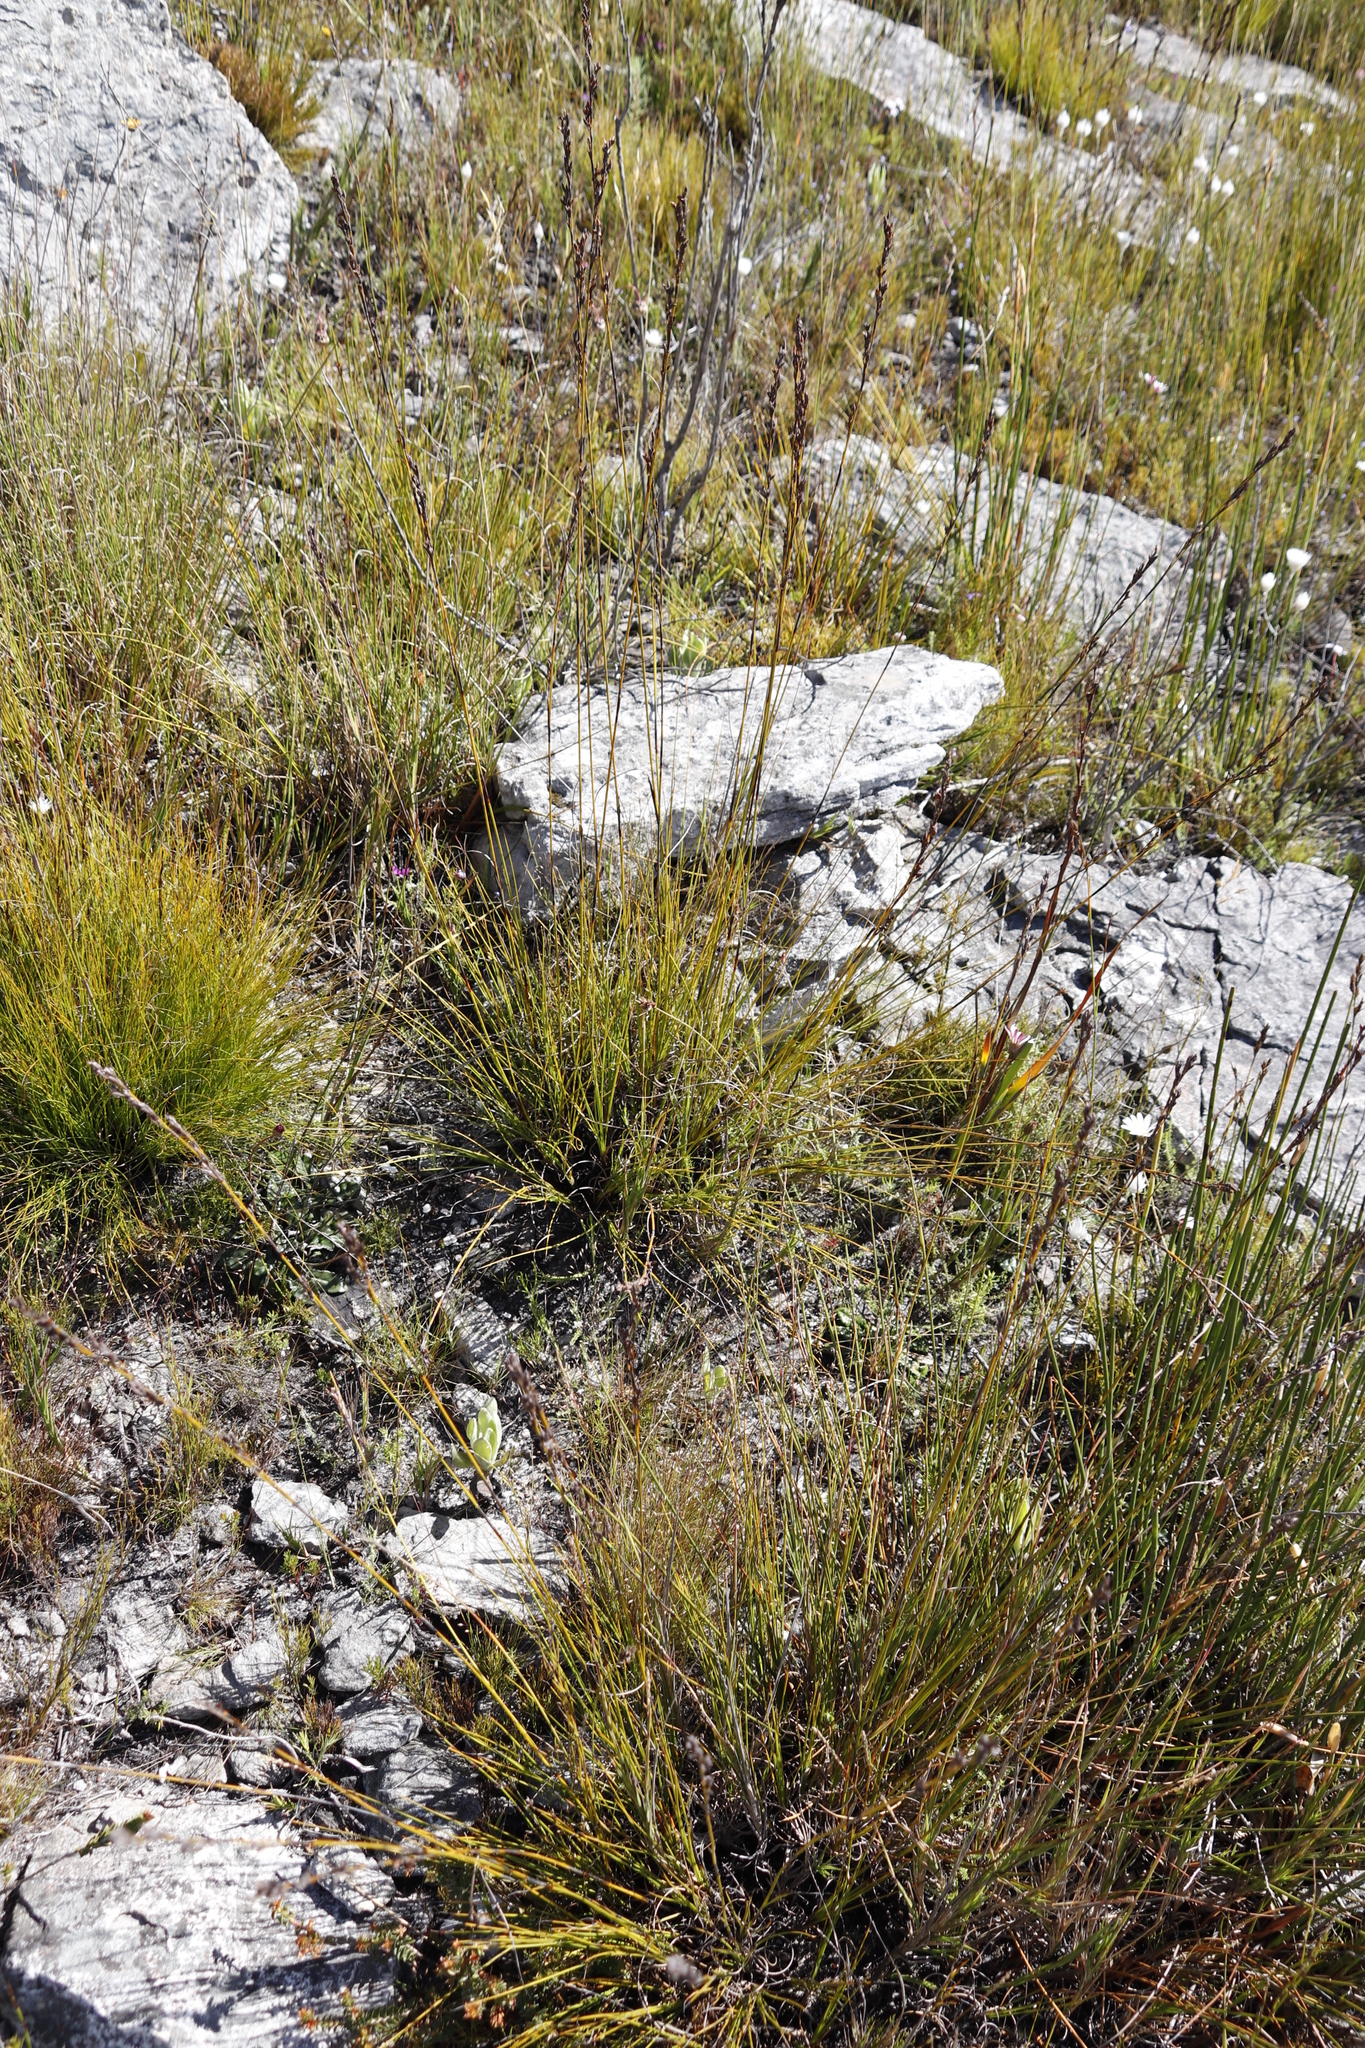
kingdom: Plantae
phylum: Tracheophyta
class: Liliopsida
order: Poales
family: Cyperaceae
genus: Tetraria
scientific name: Tetraria flexuosa
